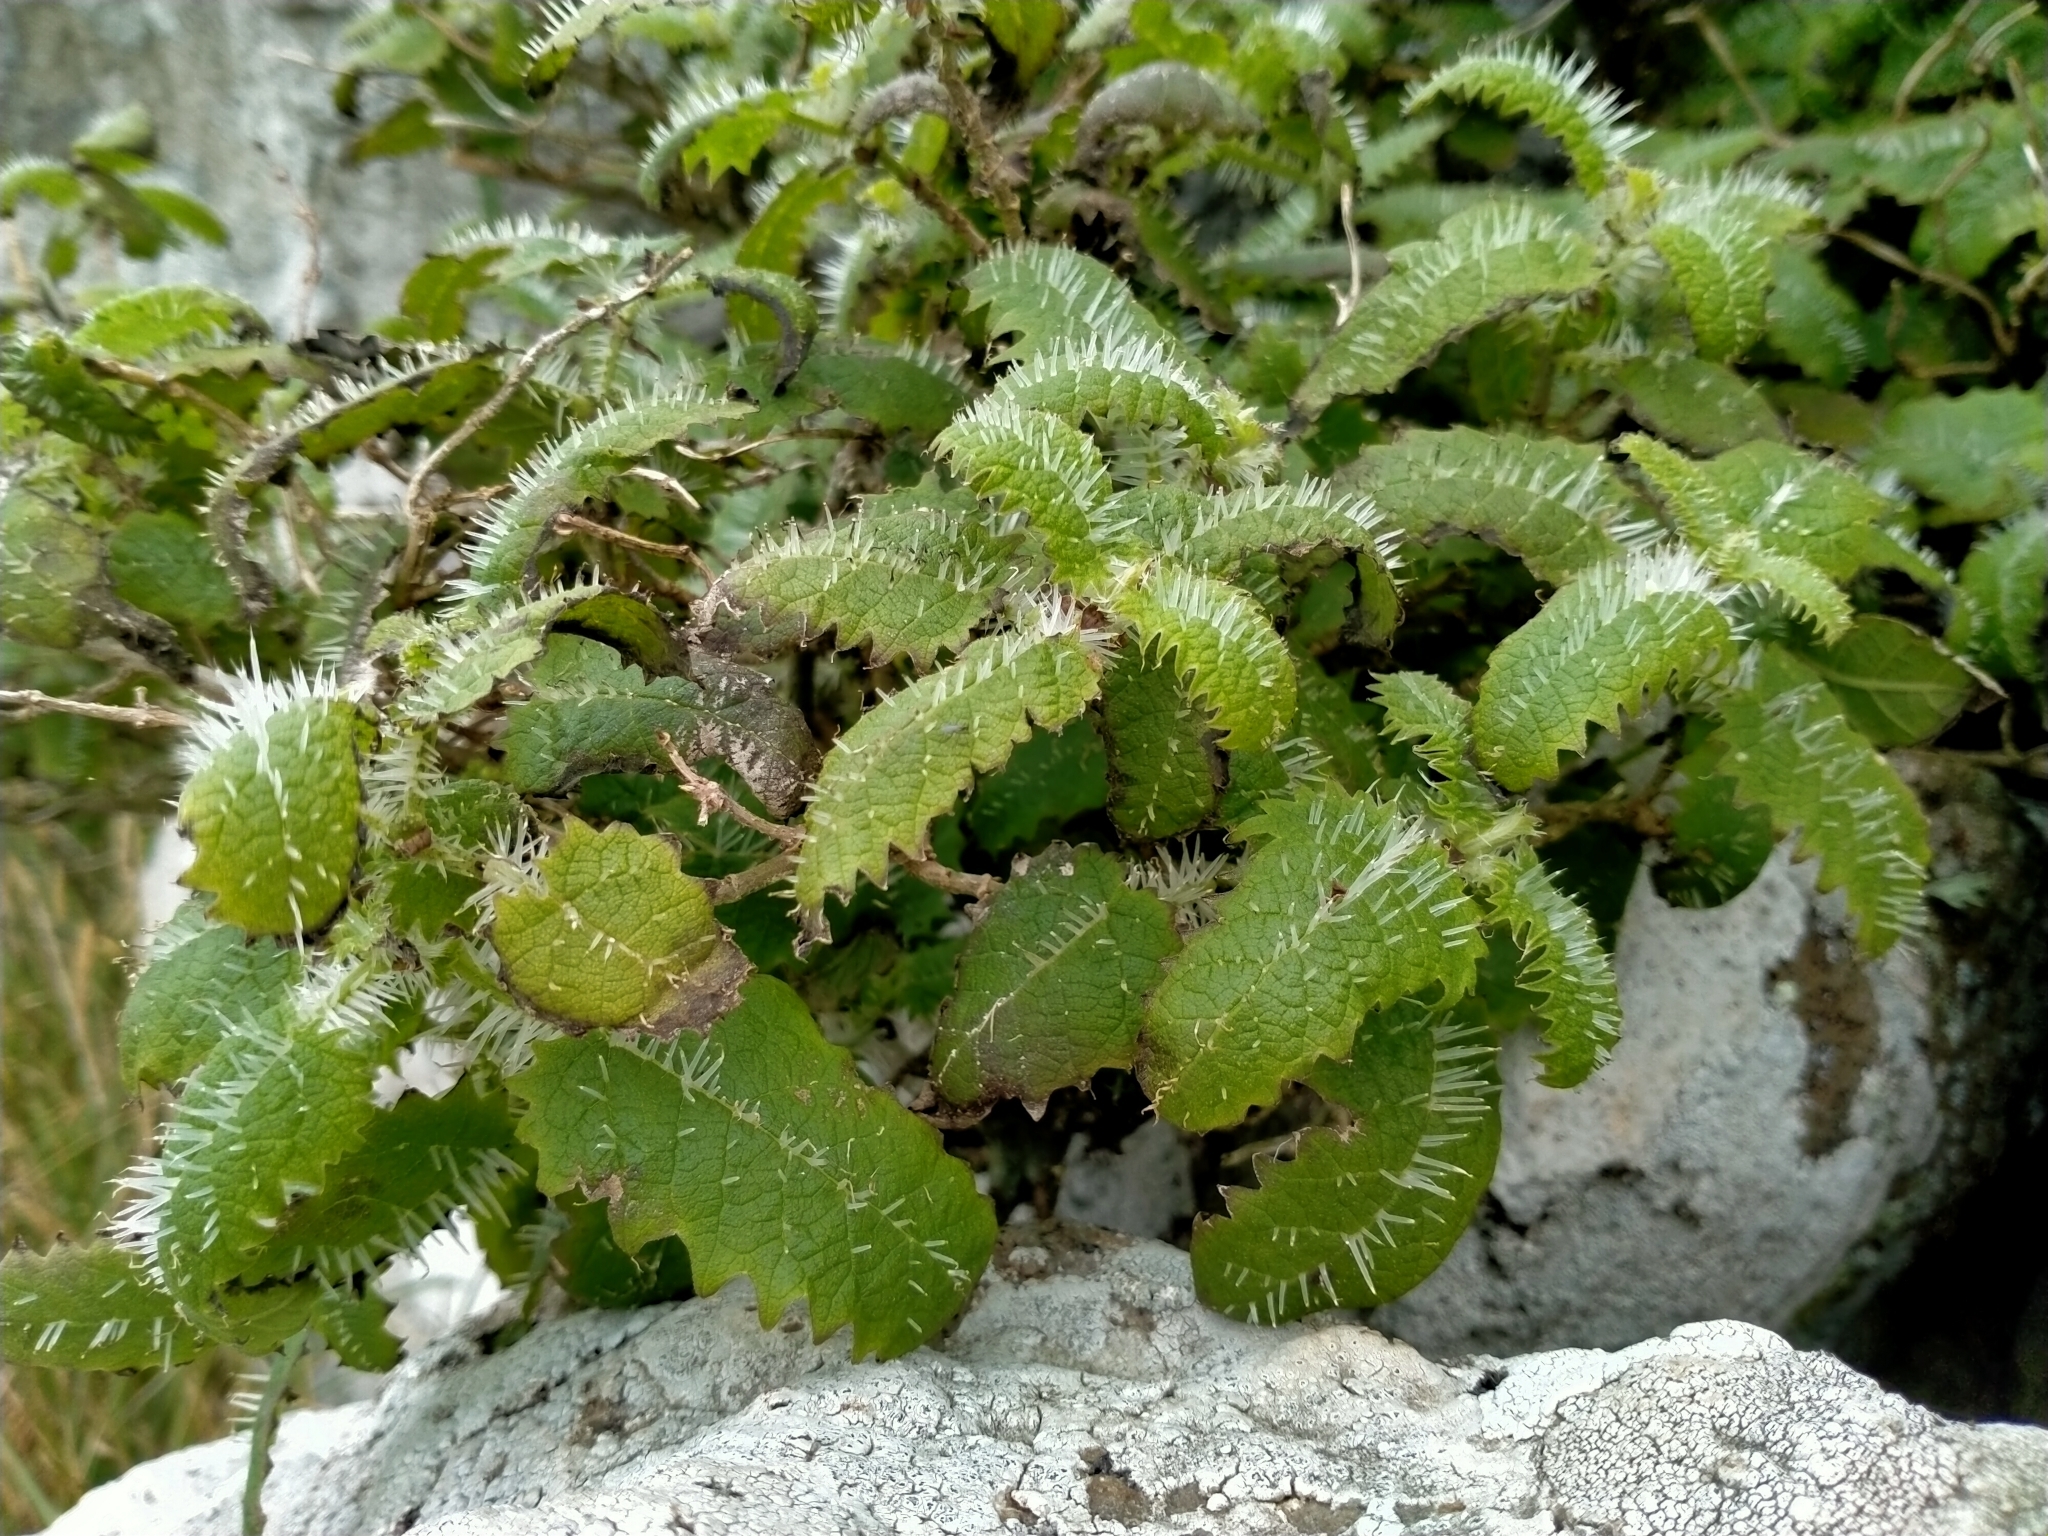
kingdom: Plantae
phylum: Tracheophyta
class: Magnoliopsida
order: Rosales
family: Urticaceae
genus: Urtica
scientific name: Urtica ferox
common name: Tree nettle
